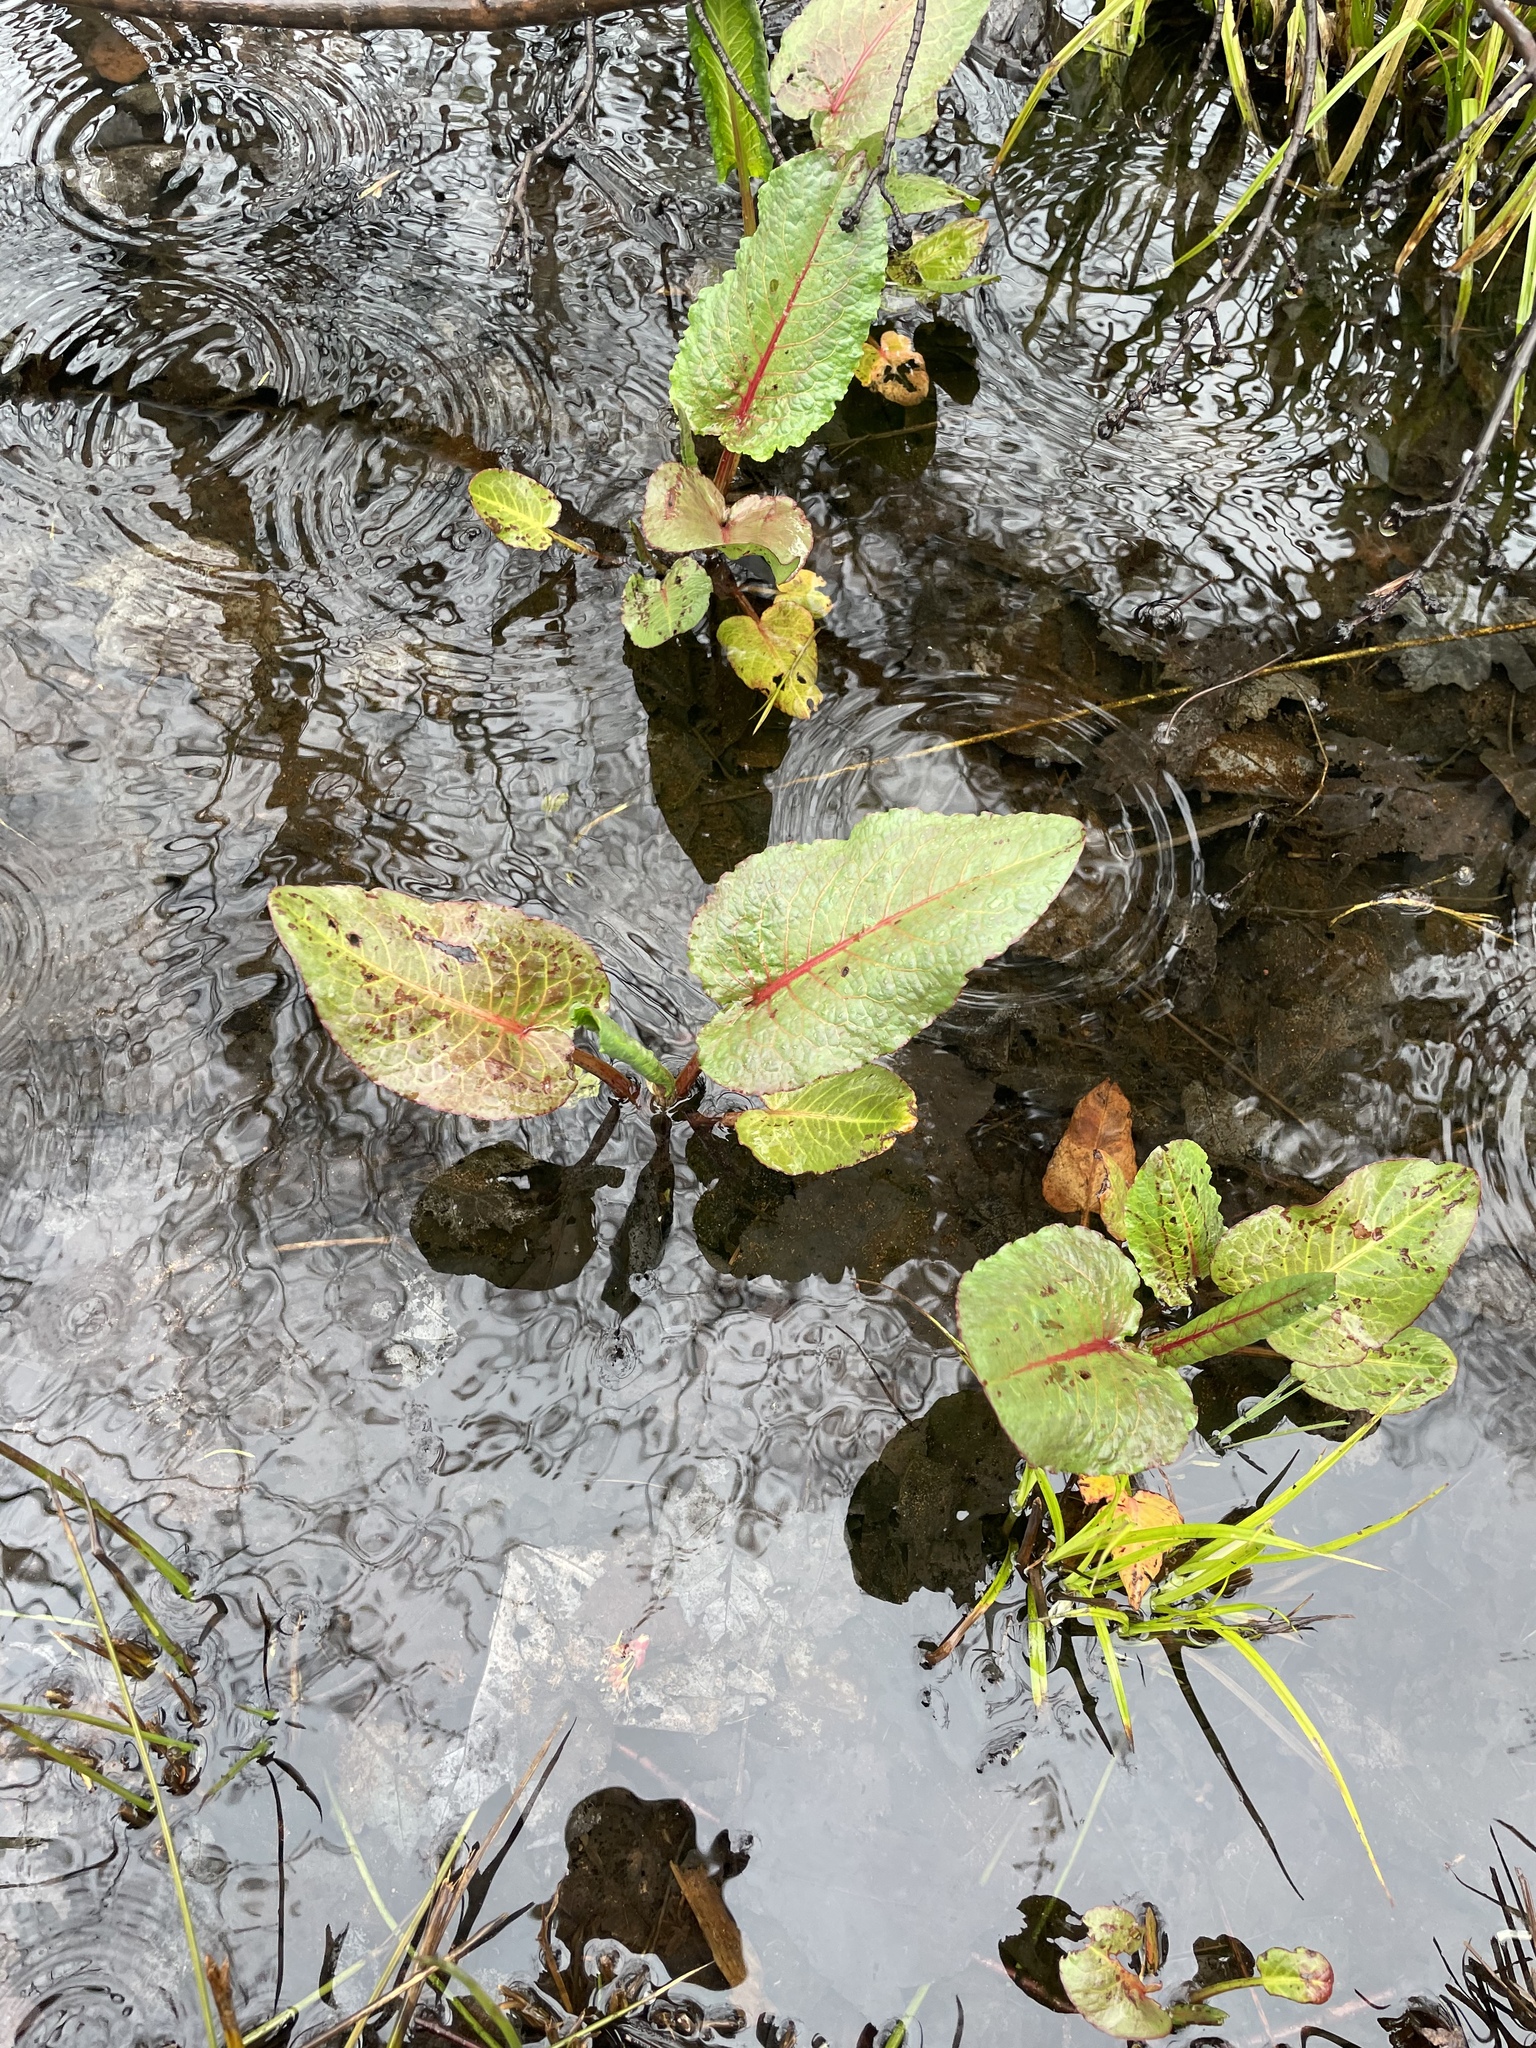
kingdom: Plantae
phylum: Tracheophyta
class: Magnoliopsida
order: Caryophyllales
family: Polygonaceae
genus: Rumex
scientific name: Rumex obtusifolius
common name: Bitter dock
